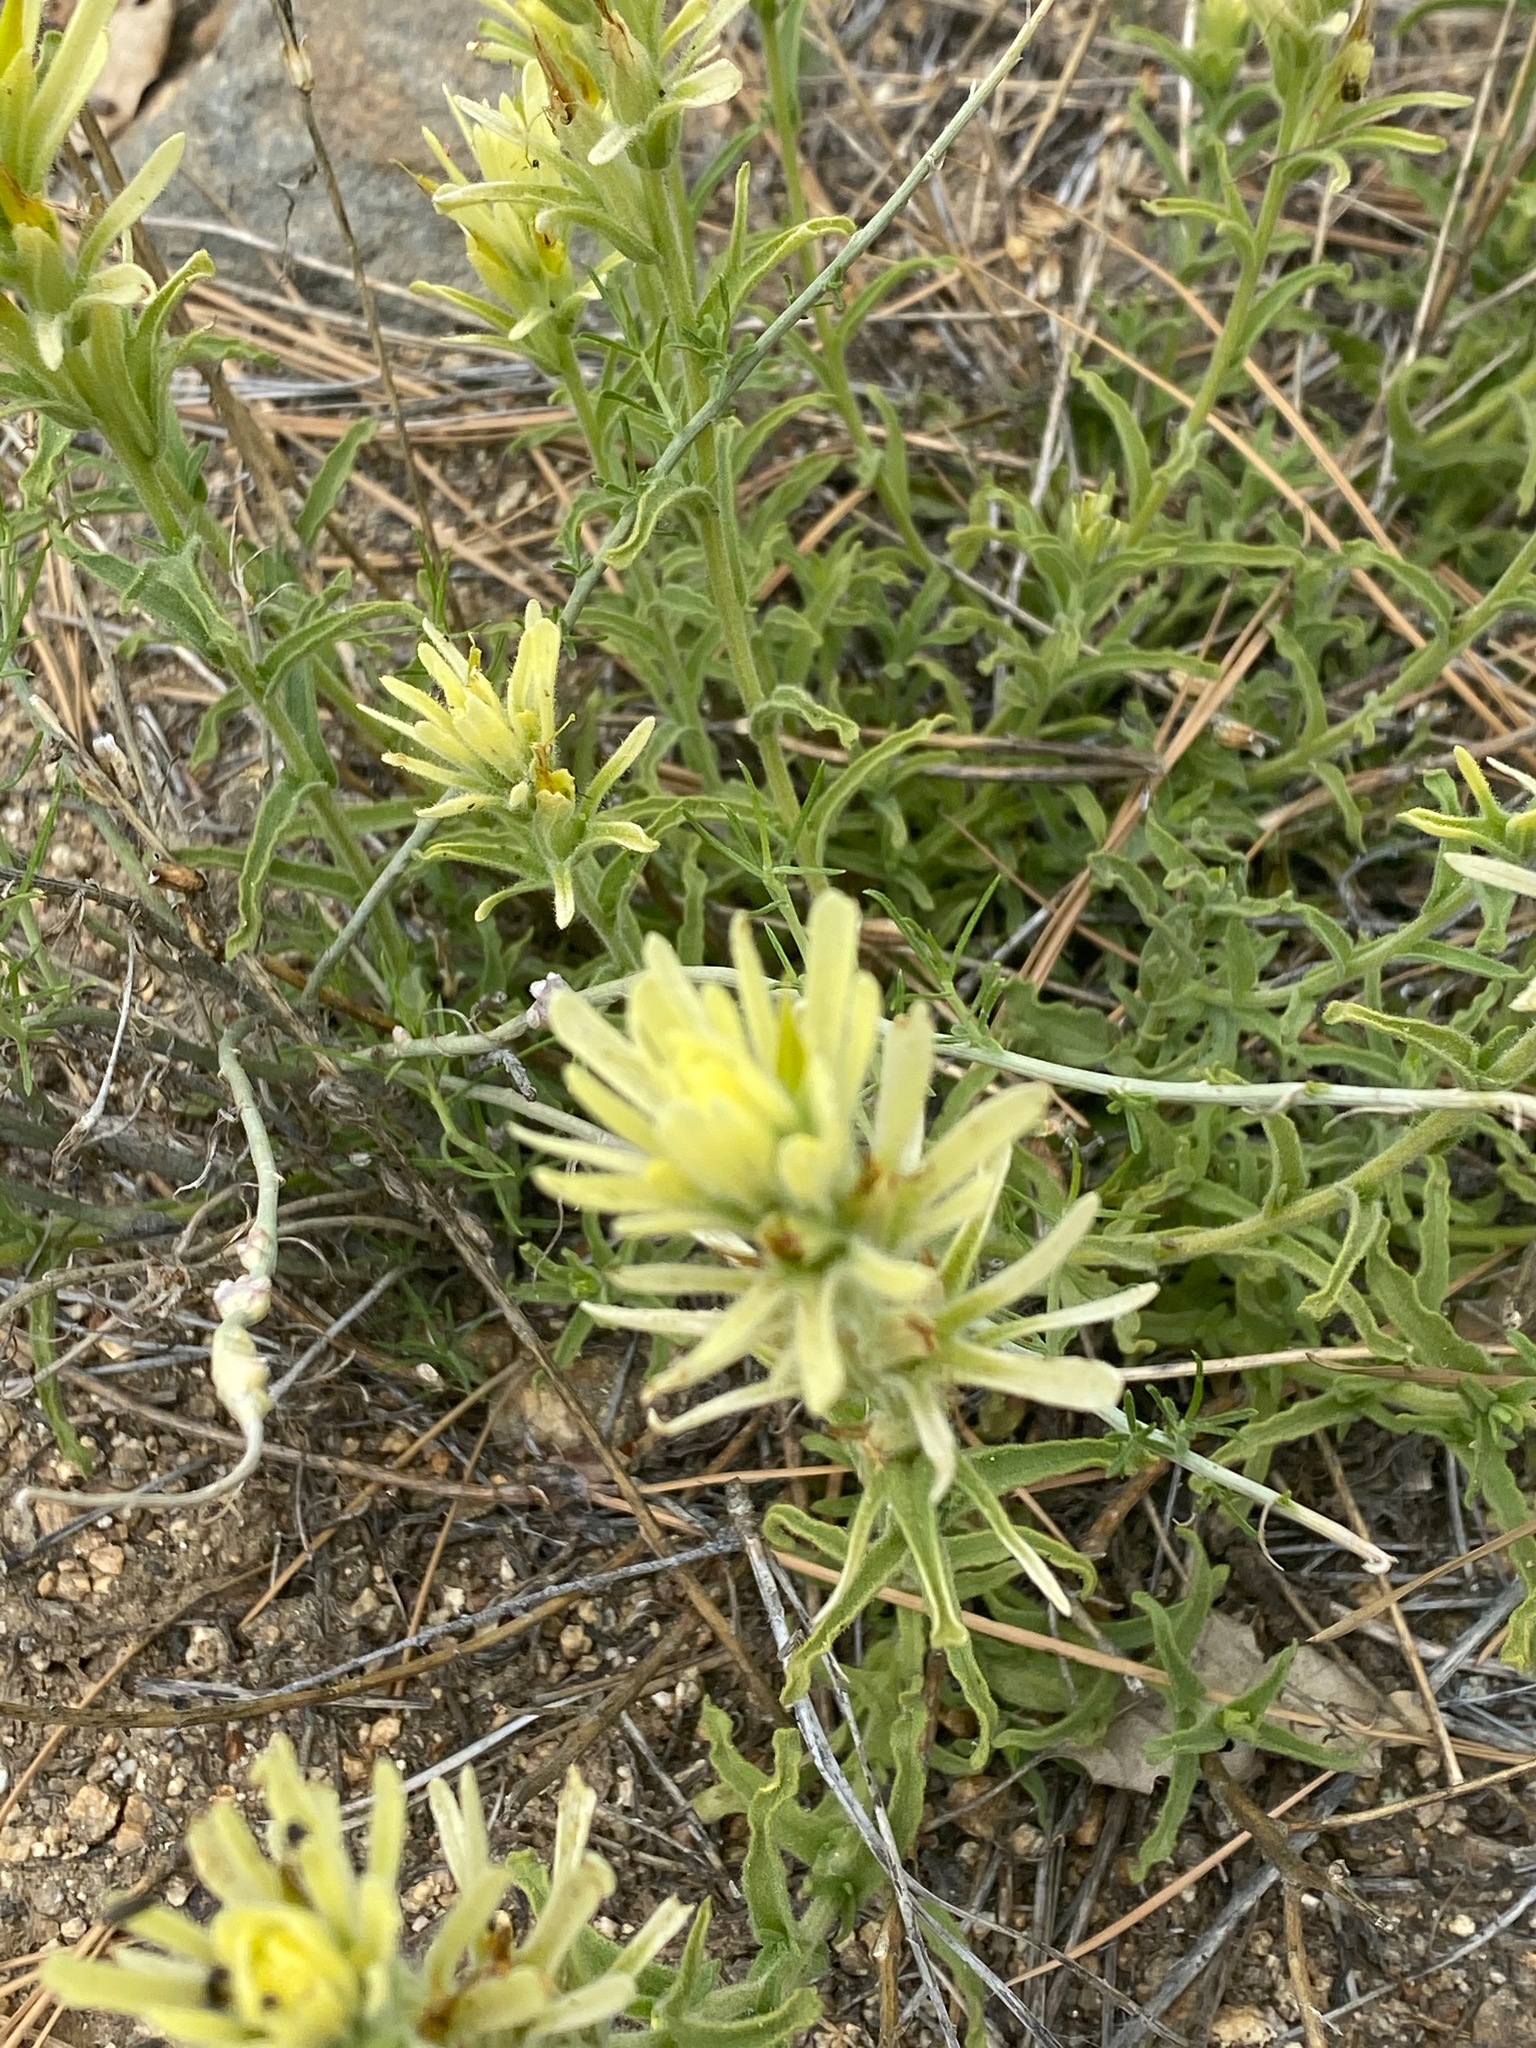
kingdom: Plantae
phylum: Tracheophyta
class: Magnoliopsida
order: Lamiales
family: Orobanchaceae
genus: Castilleja
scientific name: Castilleja martini
